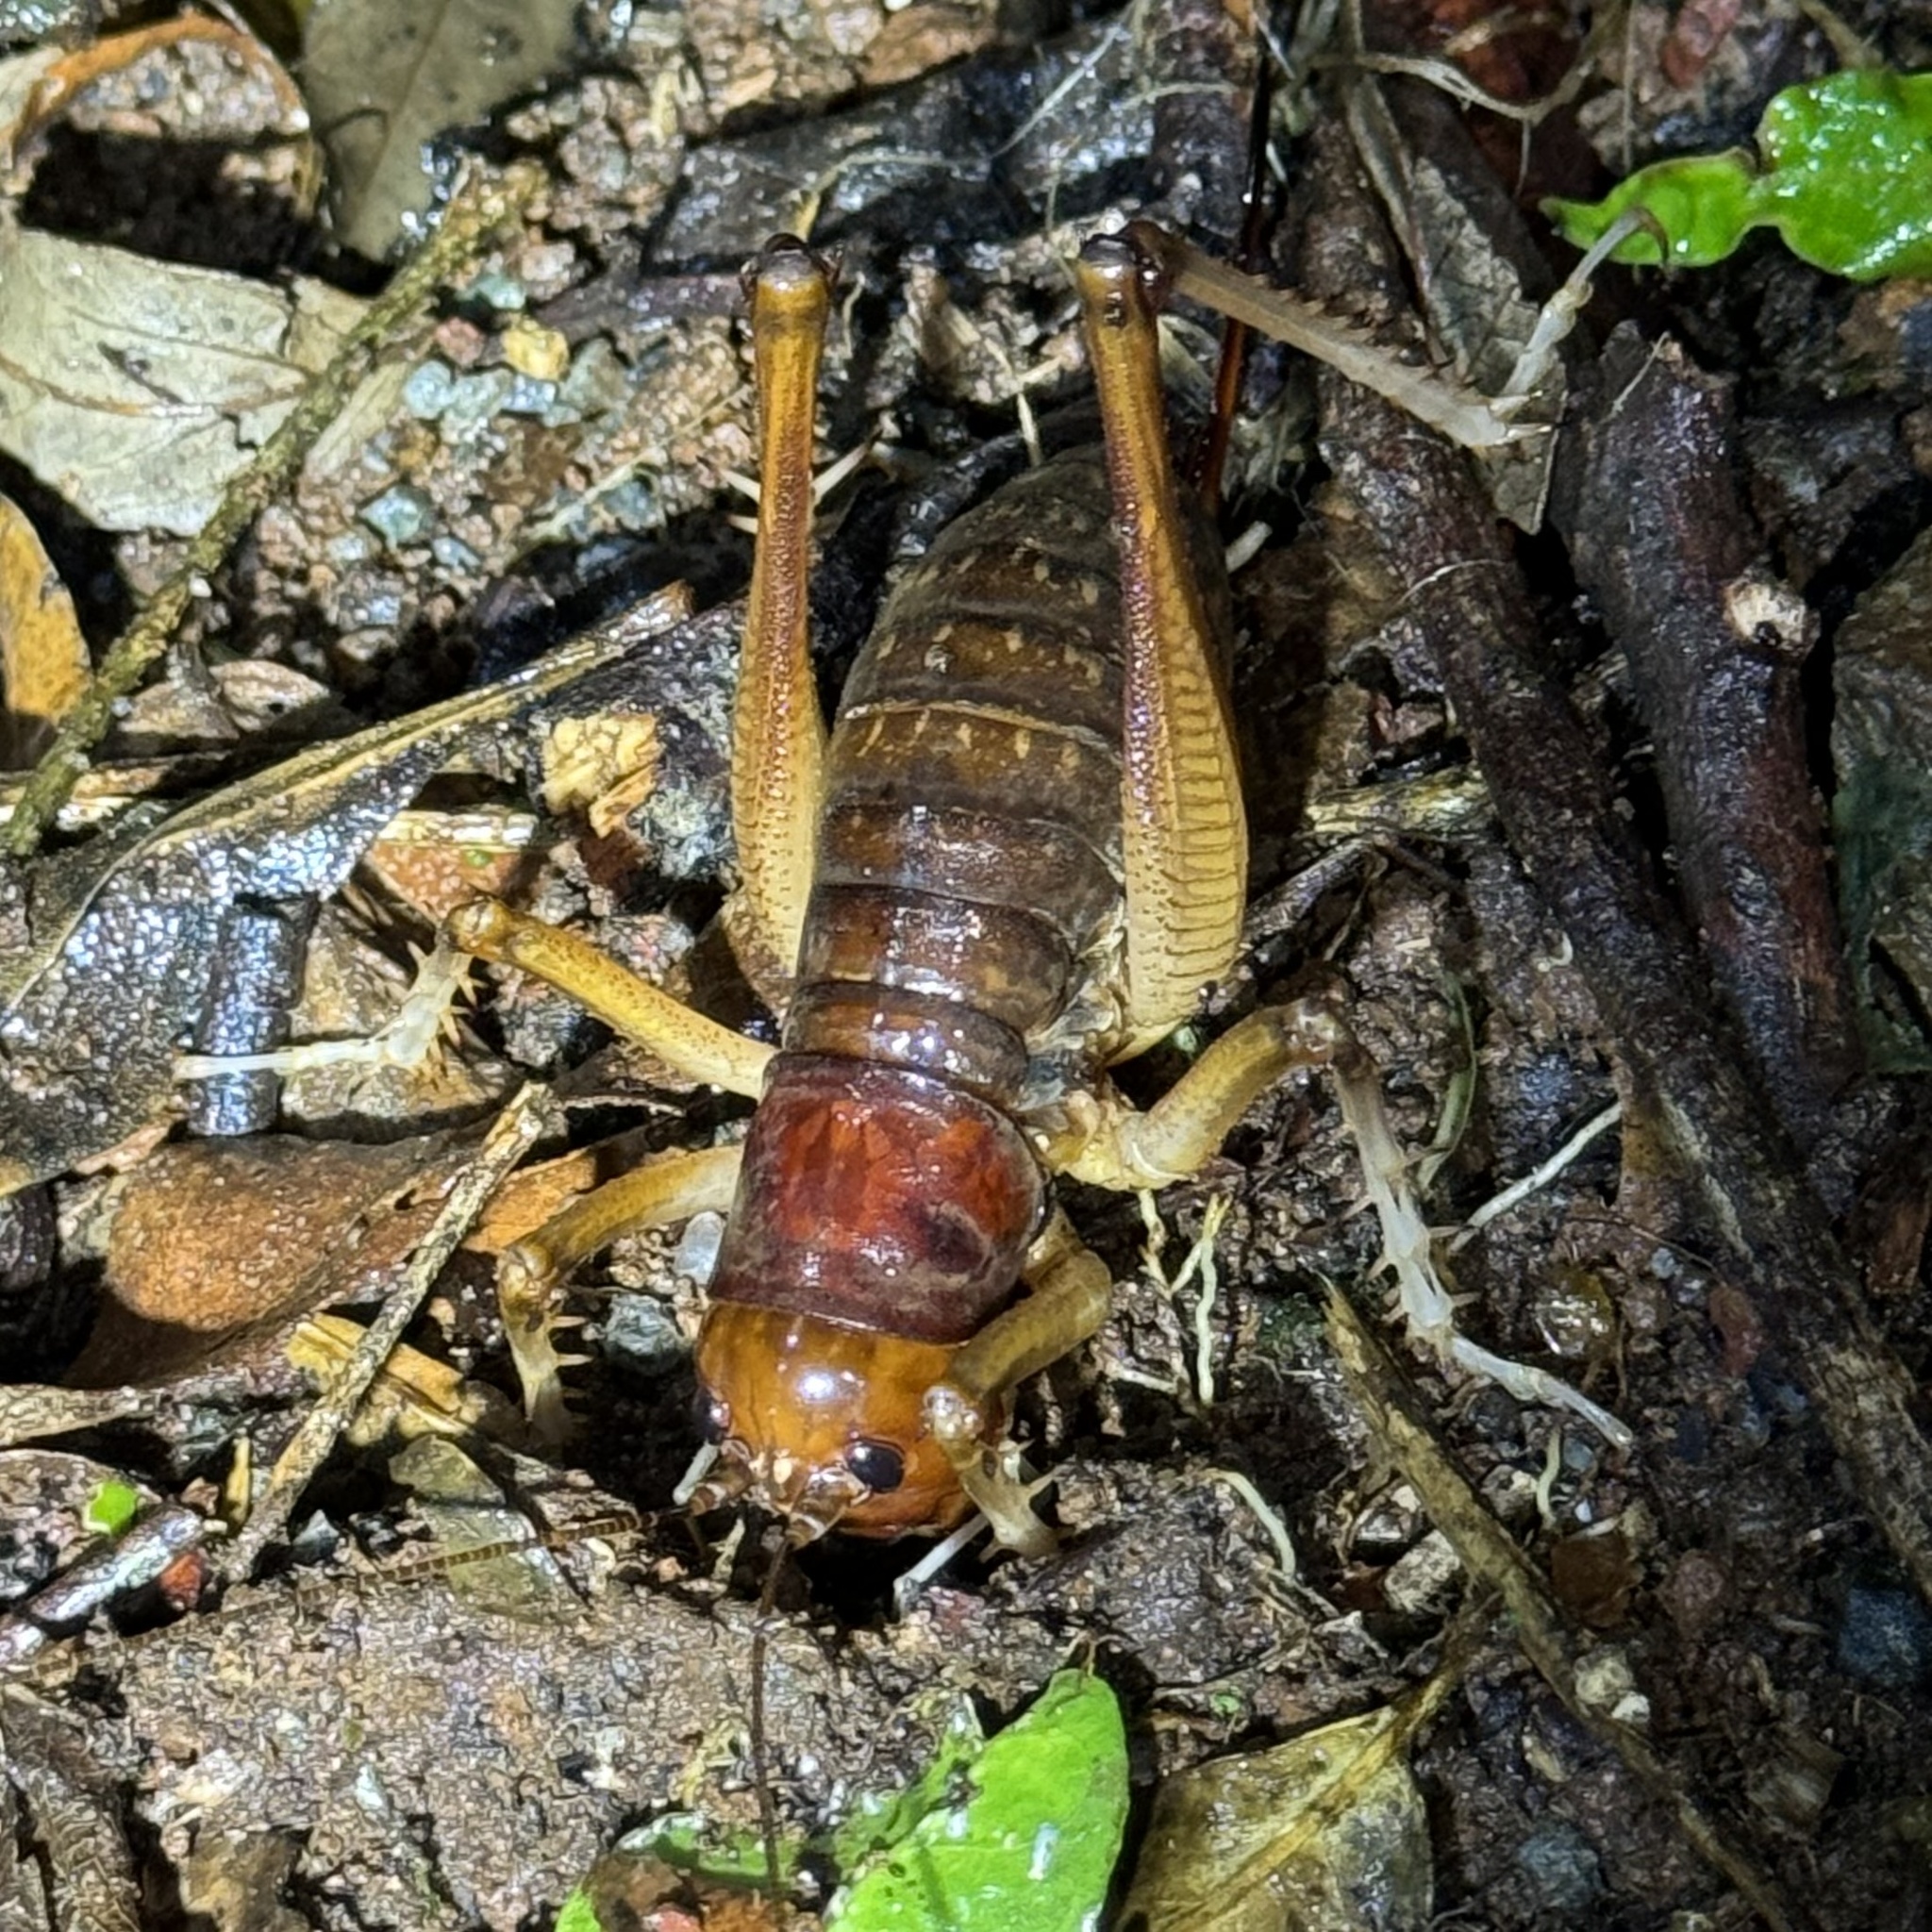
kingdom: Animalia
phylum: Arthropoda
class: Insecta
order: Orthoptera
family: Anostostomatidae
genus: Anostostoma
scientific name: Anostostoma australasiae
